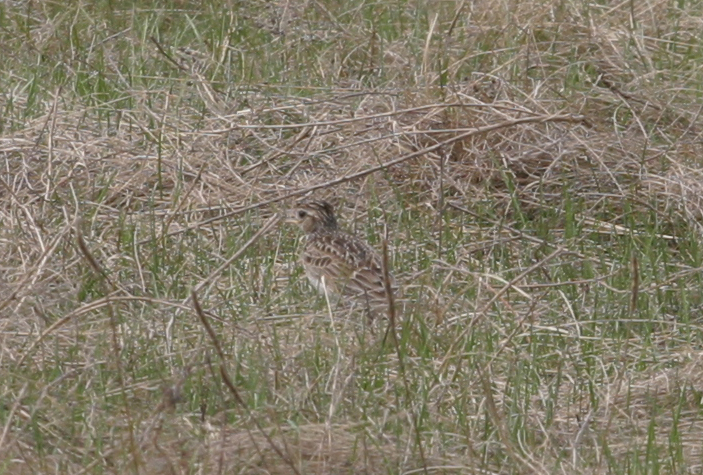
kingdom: Animalia
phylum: Chordata
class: Aves
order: Passeriformes
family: Alaudidae
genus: Alauda
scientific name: Alauda arvensis
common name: Eurasian skylark
